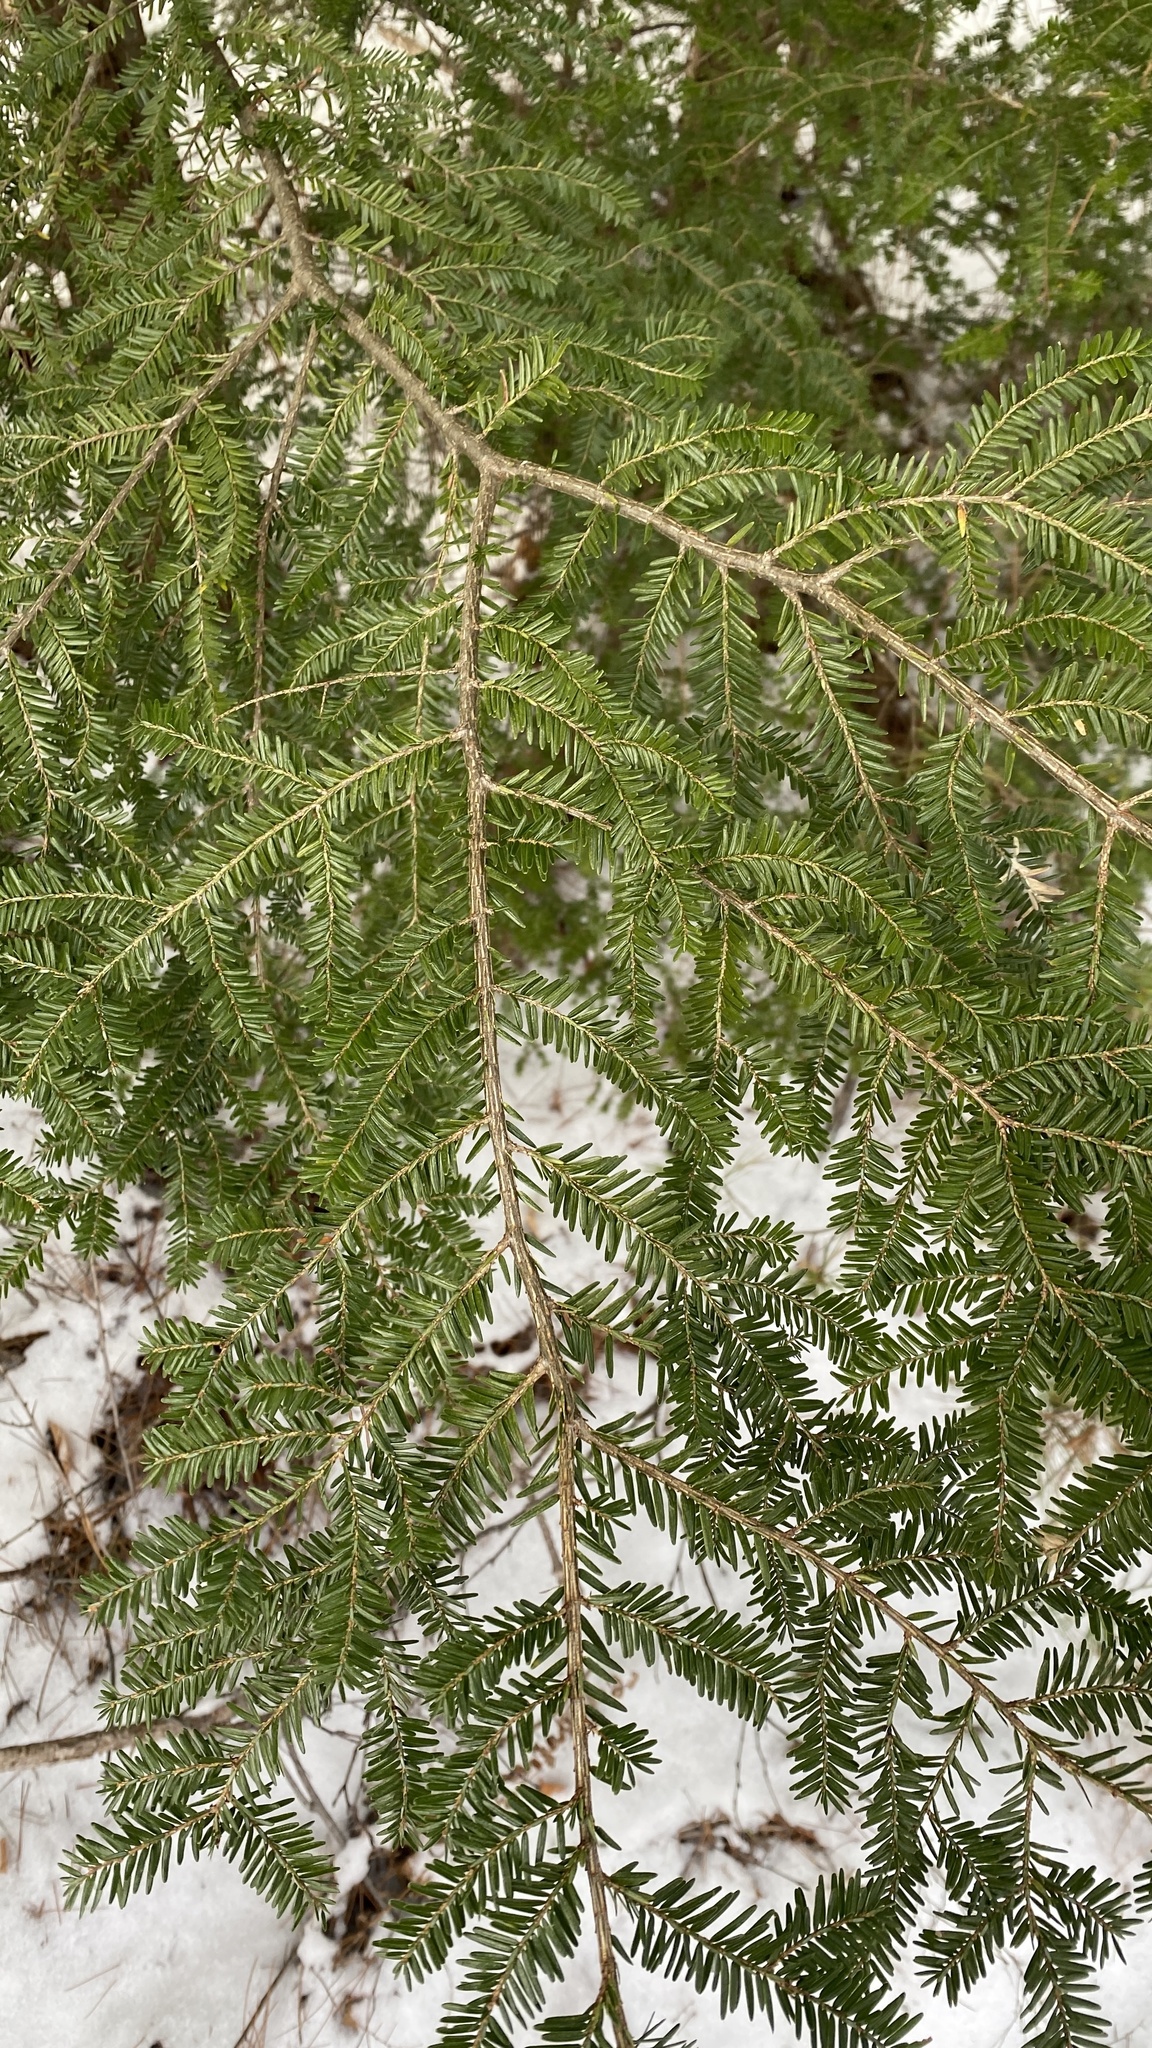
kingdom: Plantae
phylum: Tracheophyta
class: Pinopsida
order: Pinales
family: Pinaceae
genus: Tsuga
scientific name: Tsuga canadensis
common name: Eastern hemlock
